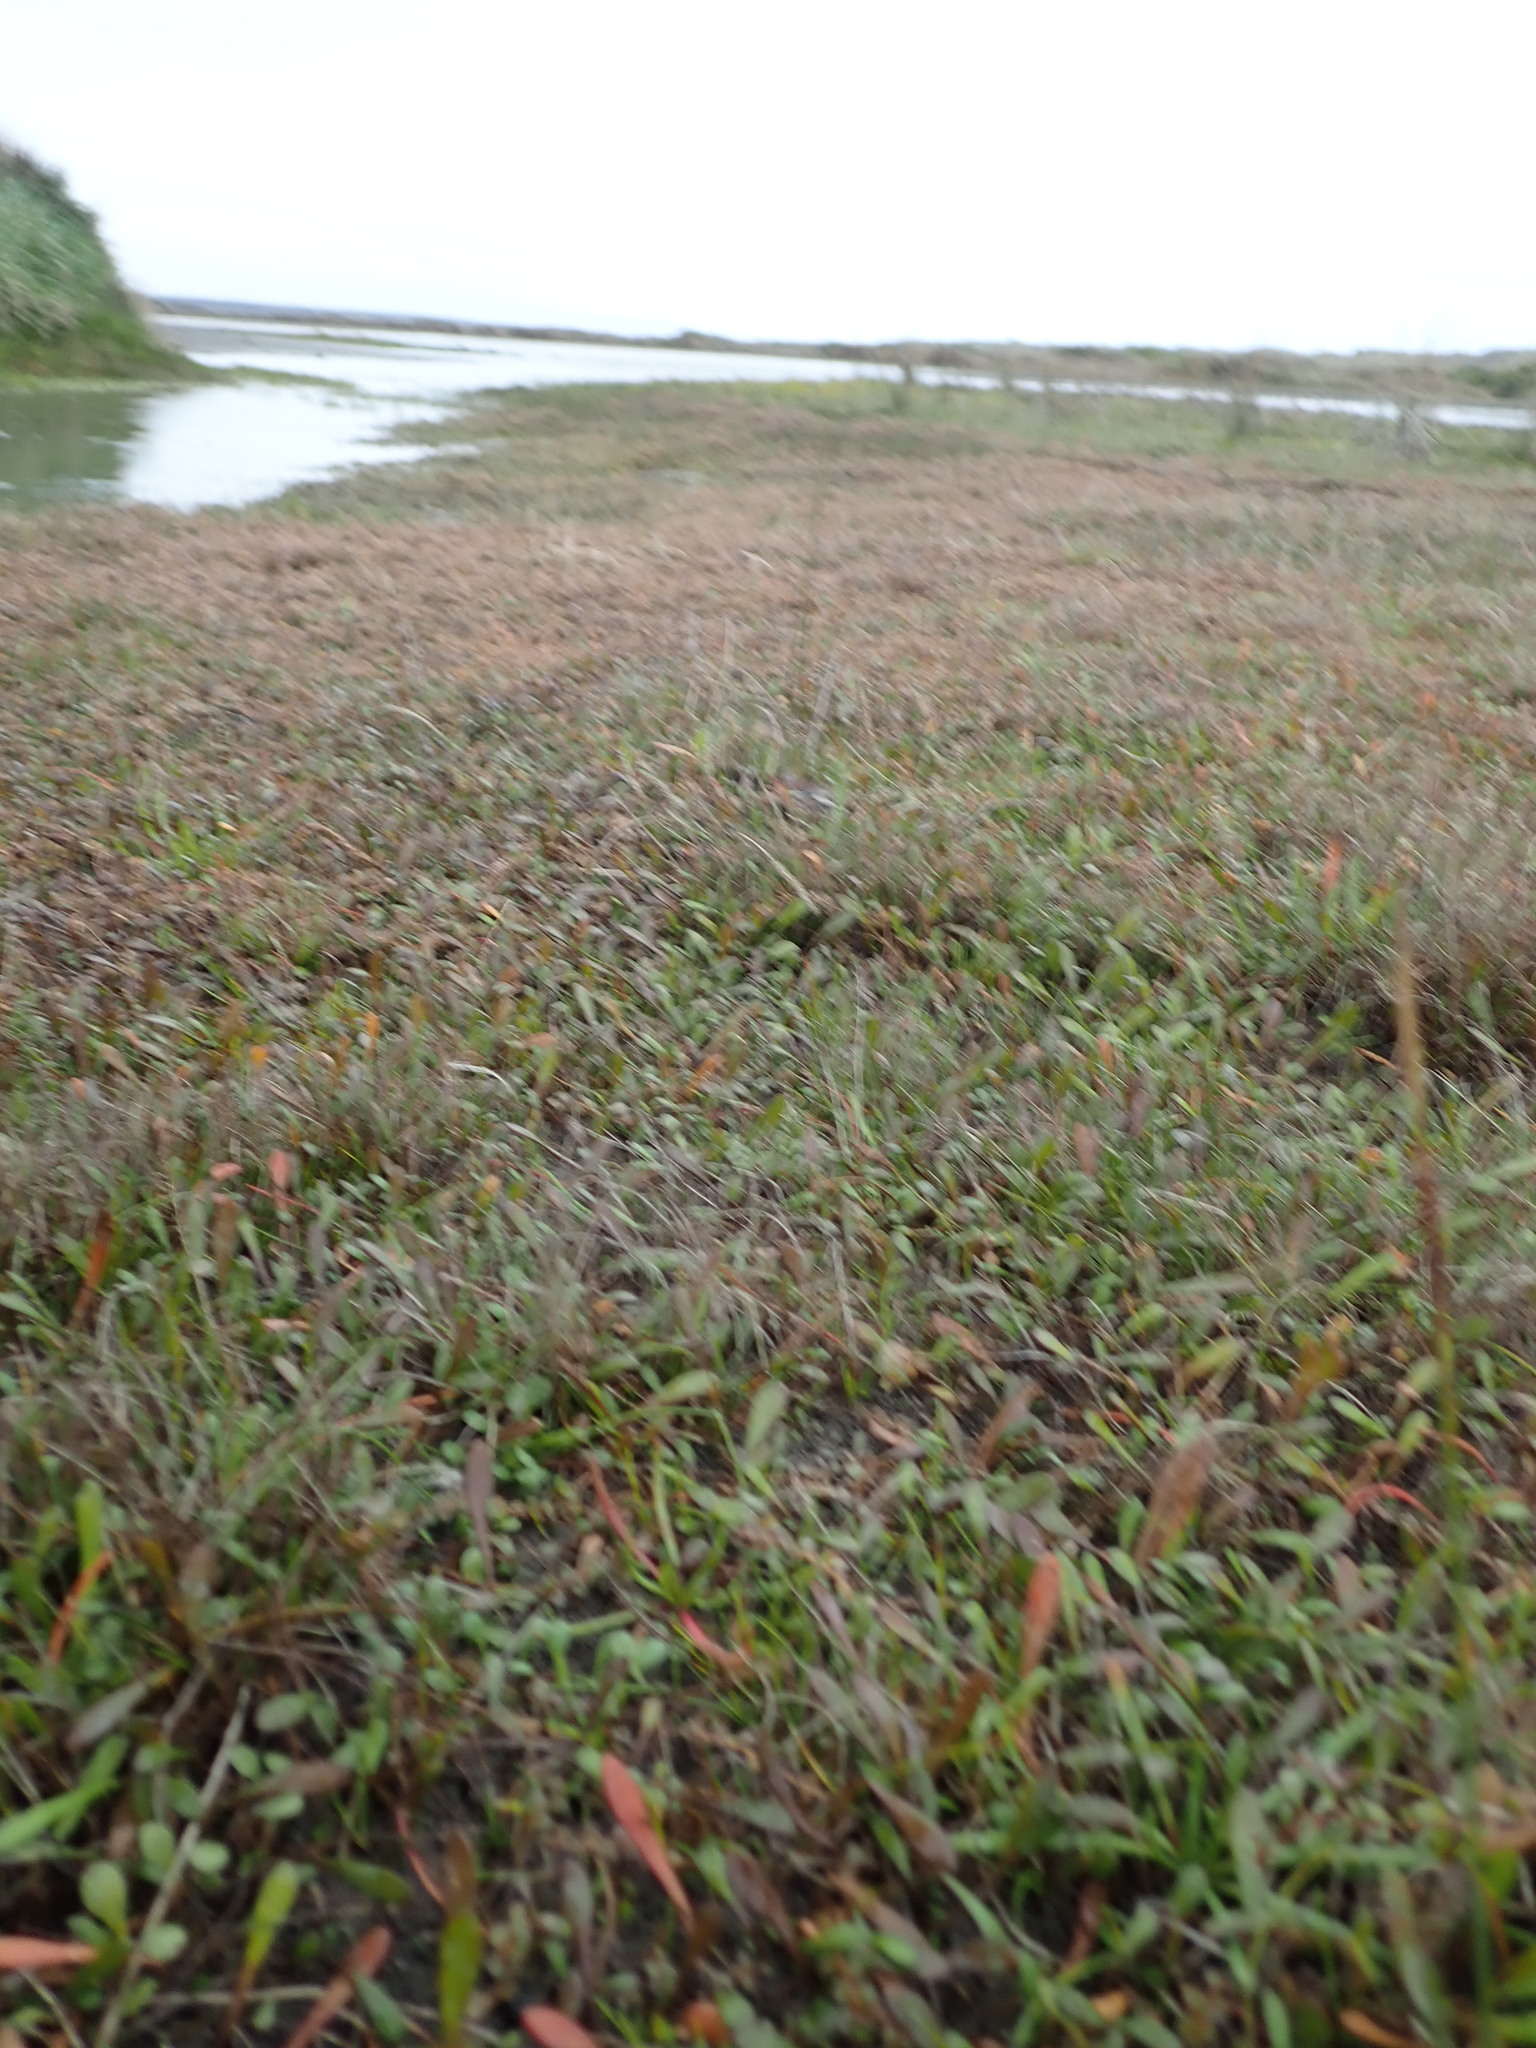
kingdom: Plantae
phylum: Tracheophyta
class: Magnoliopsida
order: Asterales
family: Goodeniaceae
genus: Goodenia
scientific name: Goodenia radicans
